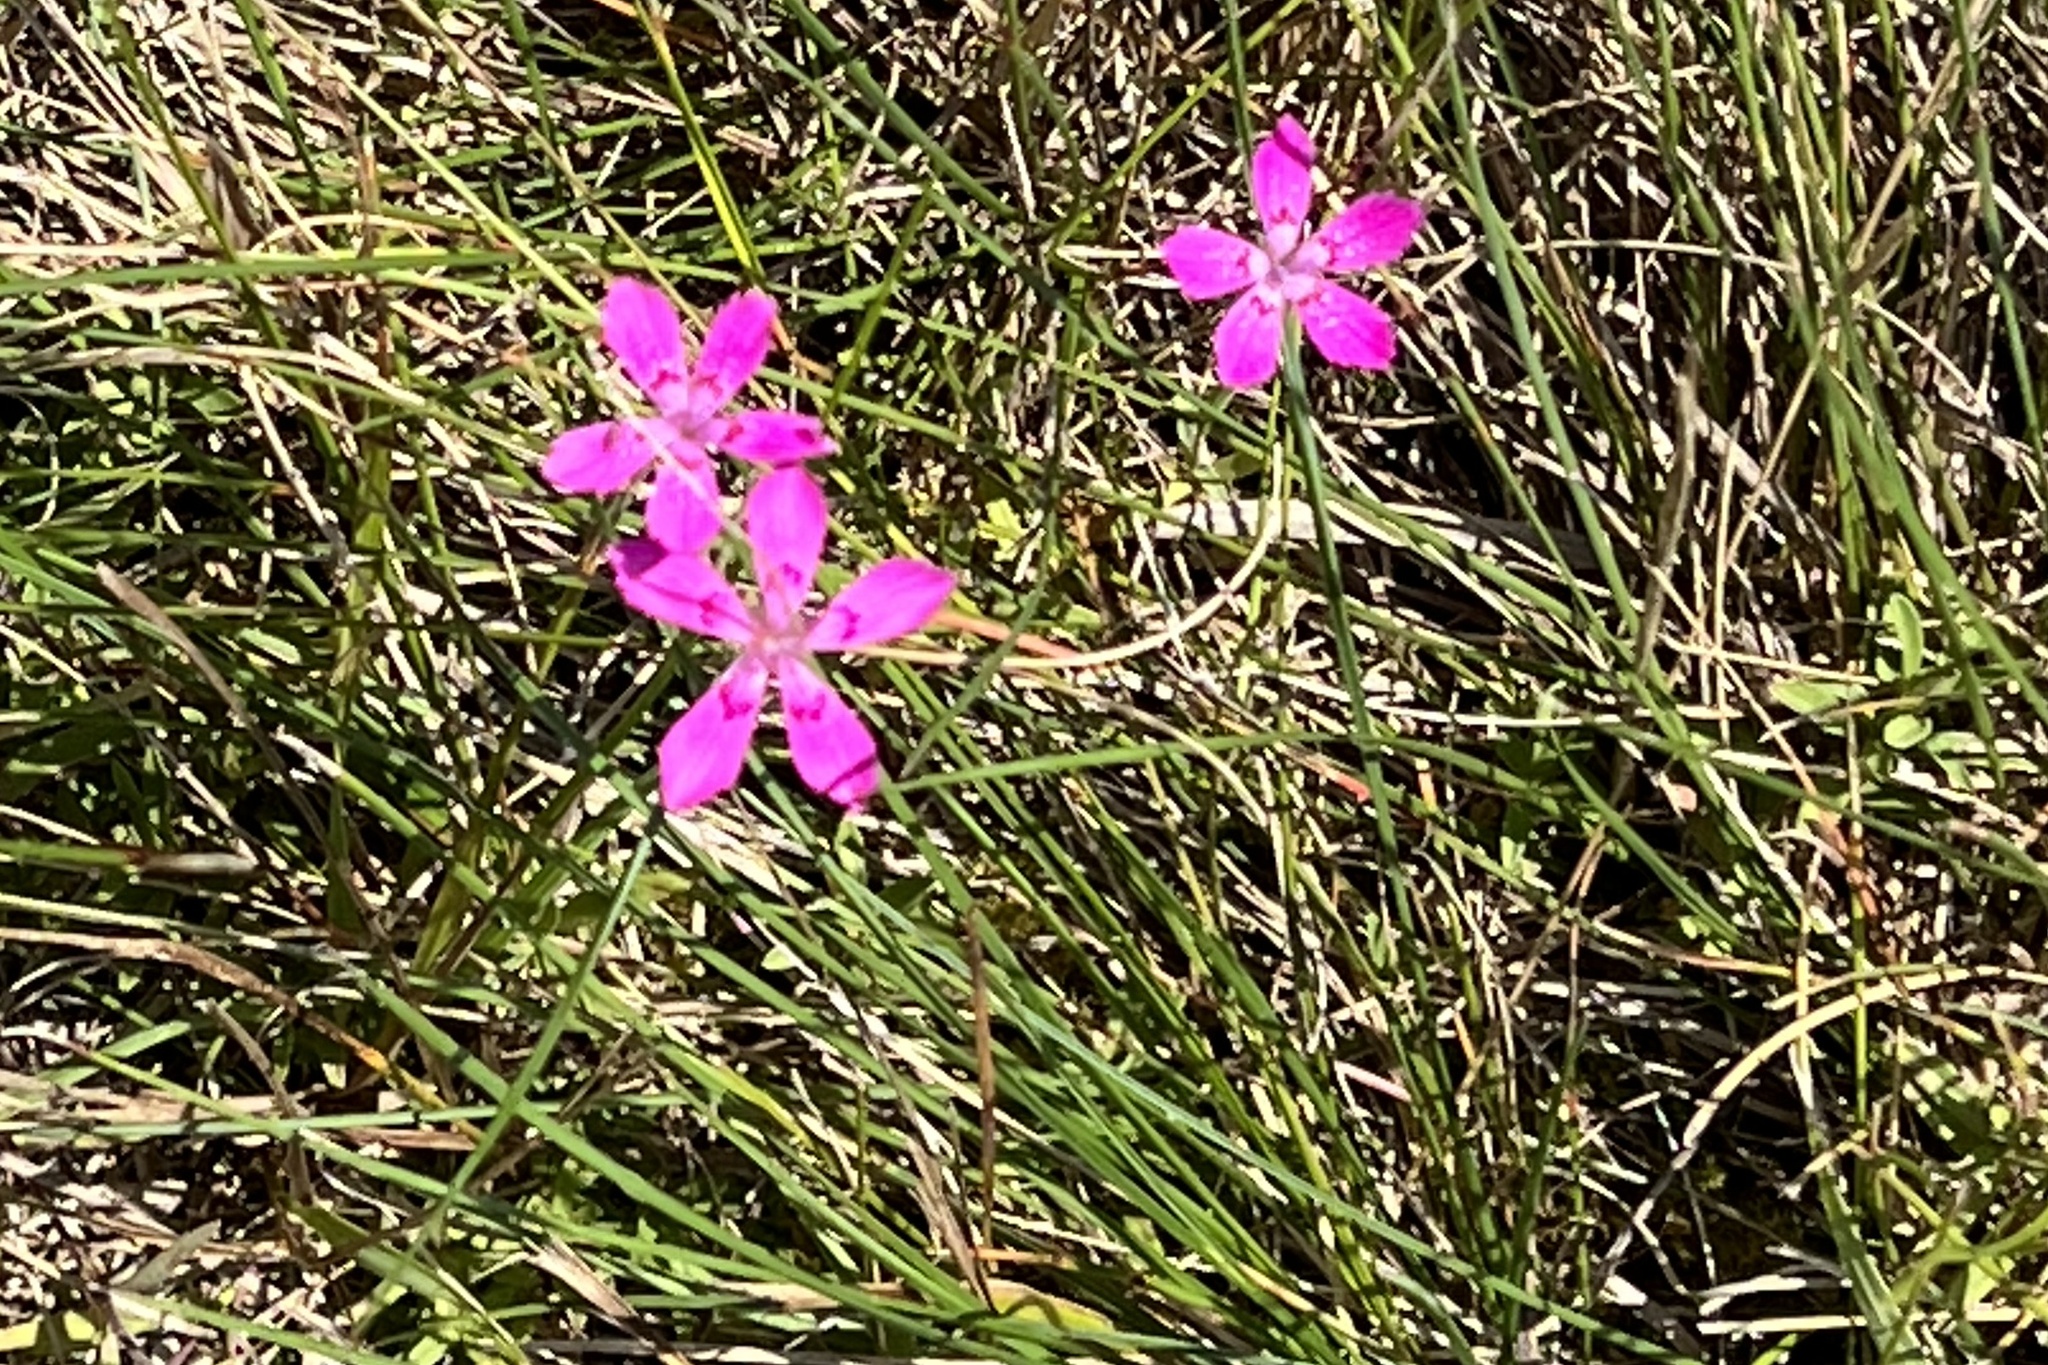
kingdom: Plantae
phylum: Tracheophyta
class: Magnoliopsida
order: Caryophyllales
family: Caryophyllaceae
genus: Dianthus
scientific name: Dianthus deltoides
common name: Maiden pink
